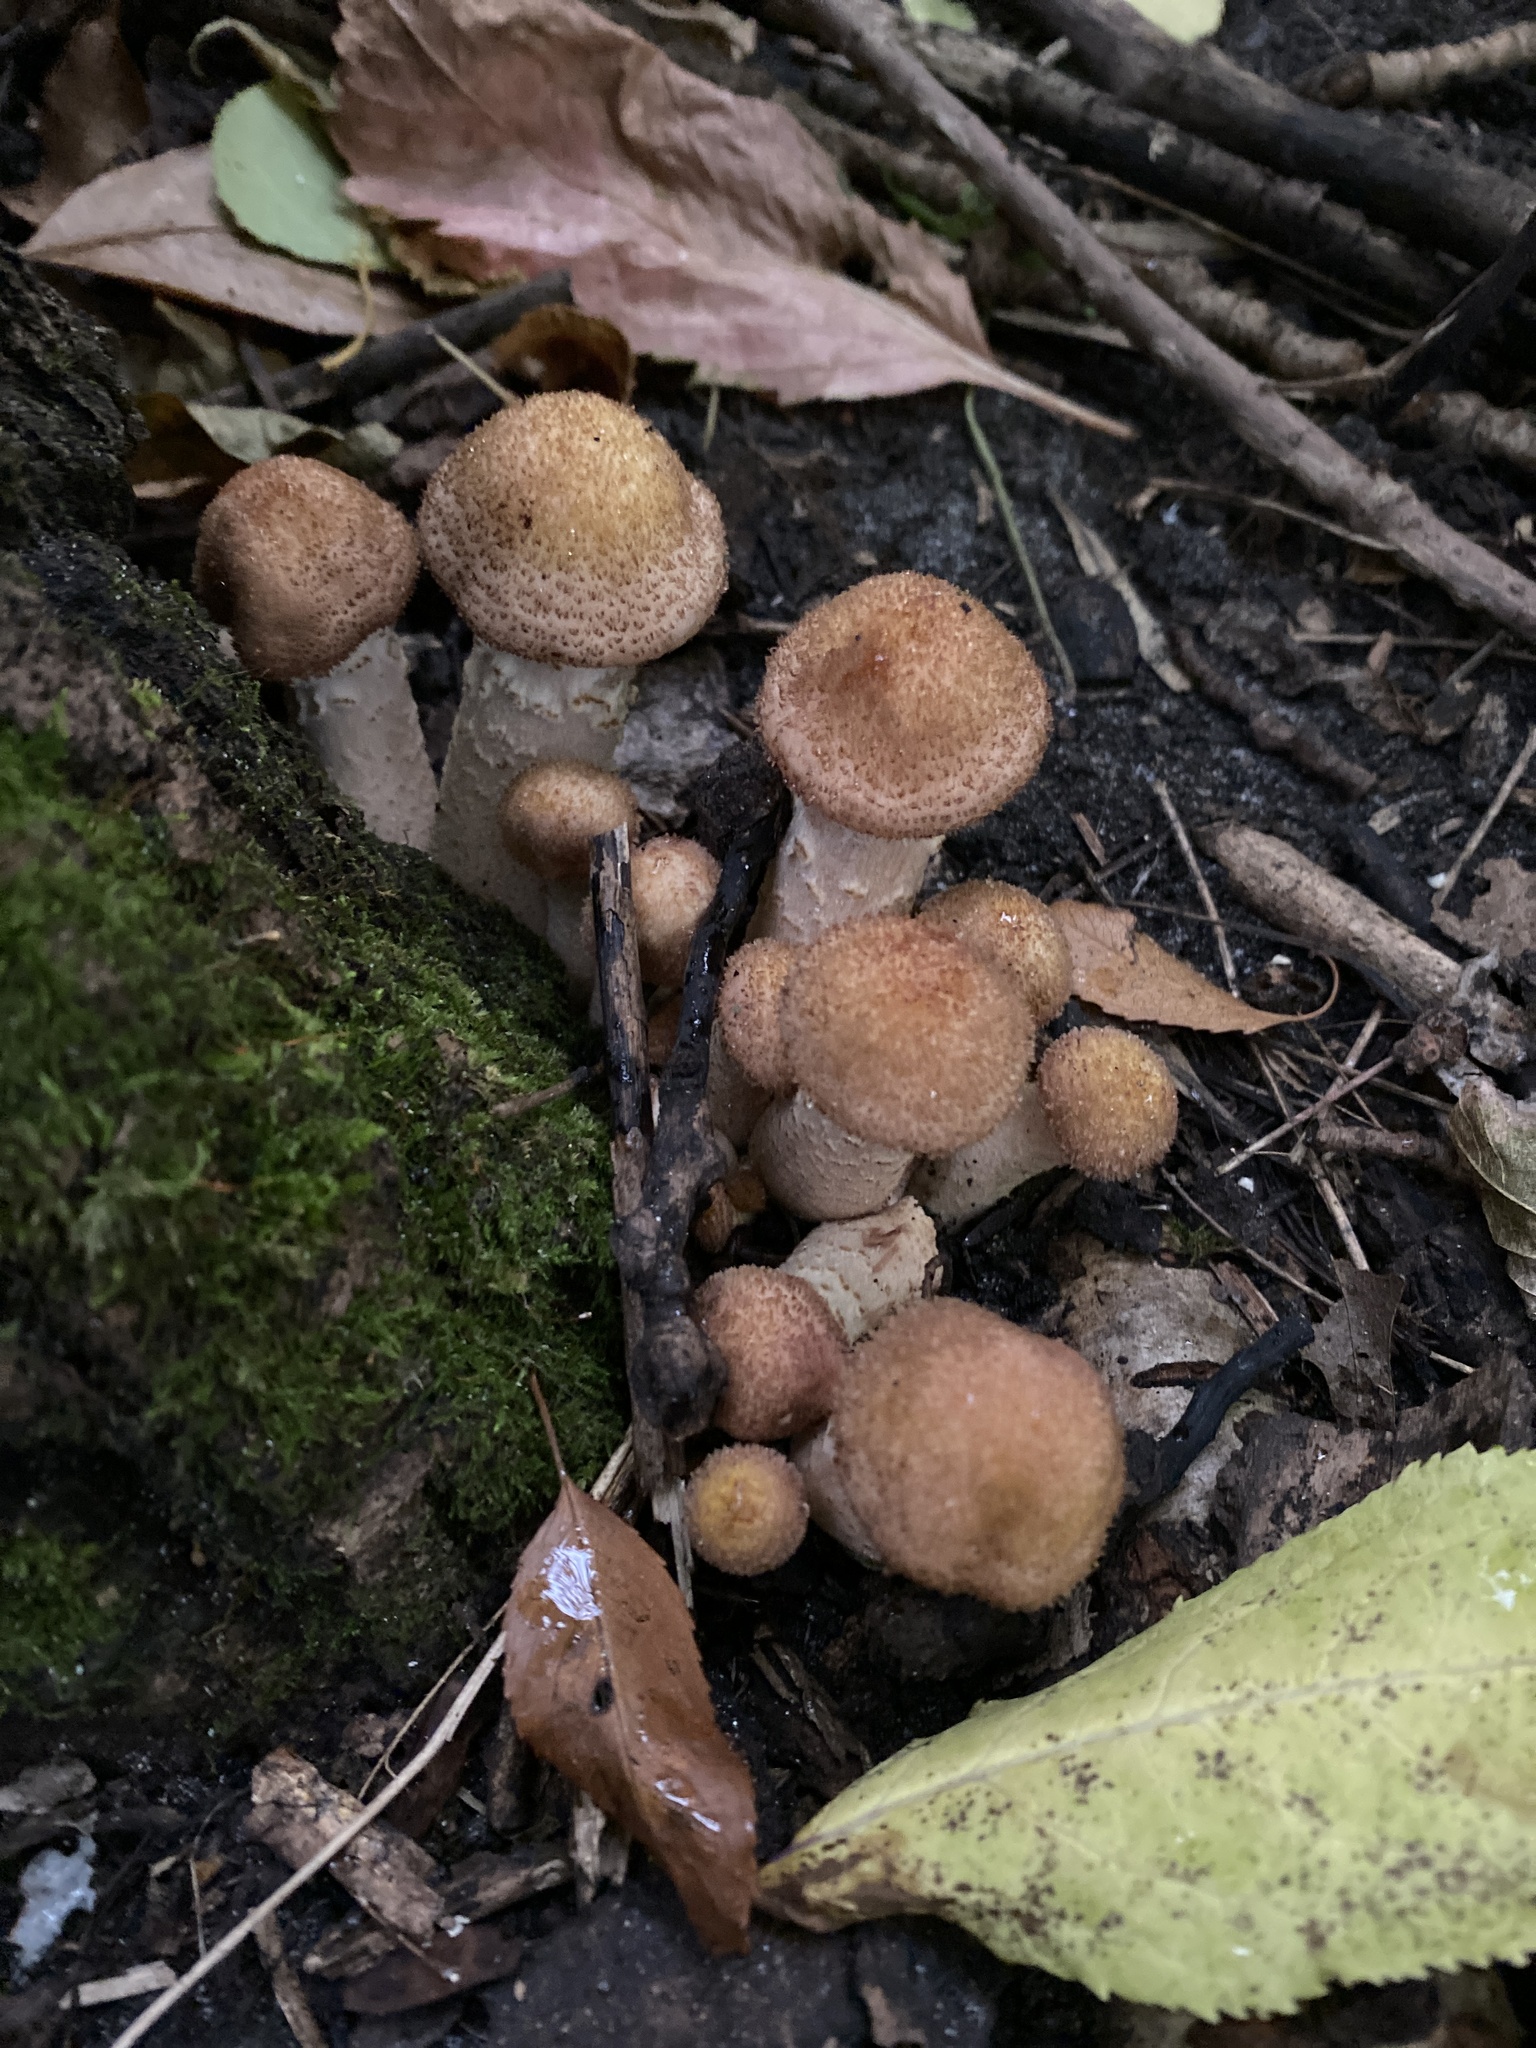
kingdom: Fungi
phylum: Basidiomycota
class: Agaricomycetes
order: Agaricales
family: Physalacriaceae
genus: Armillaria
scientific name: Armillaria mellea
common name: Honey fungus
